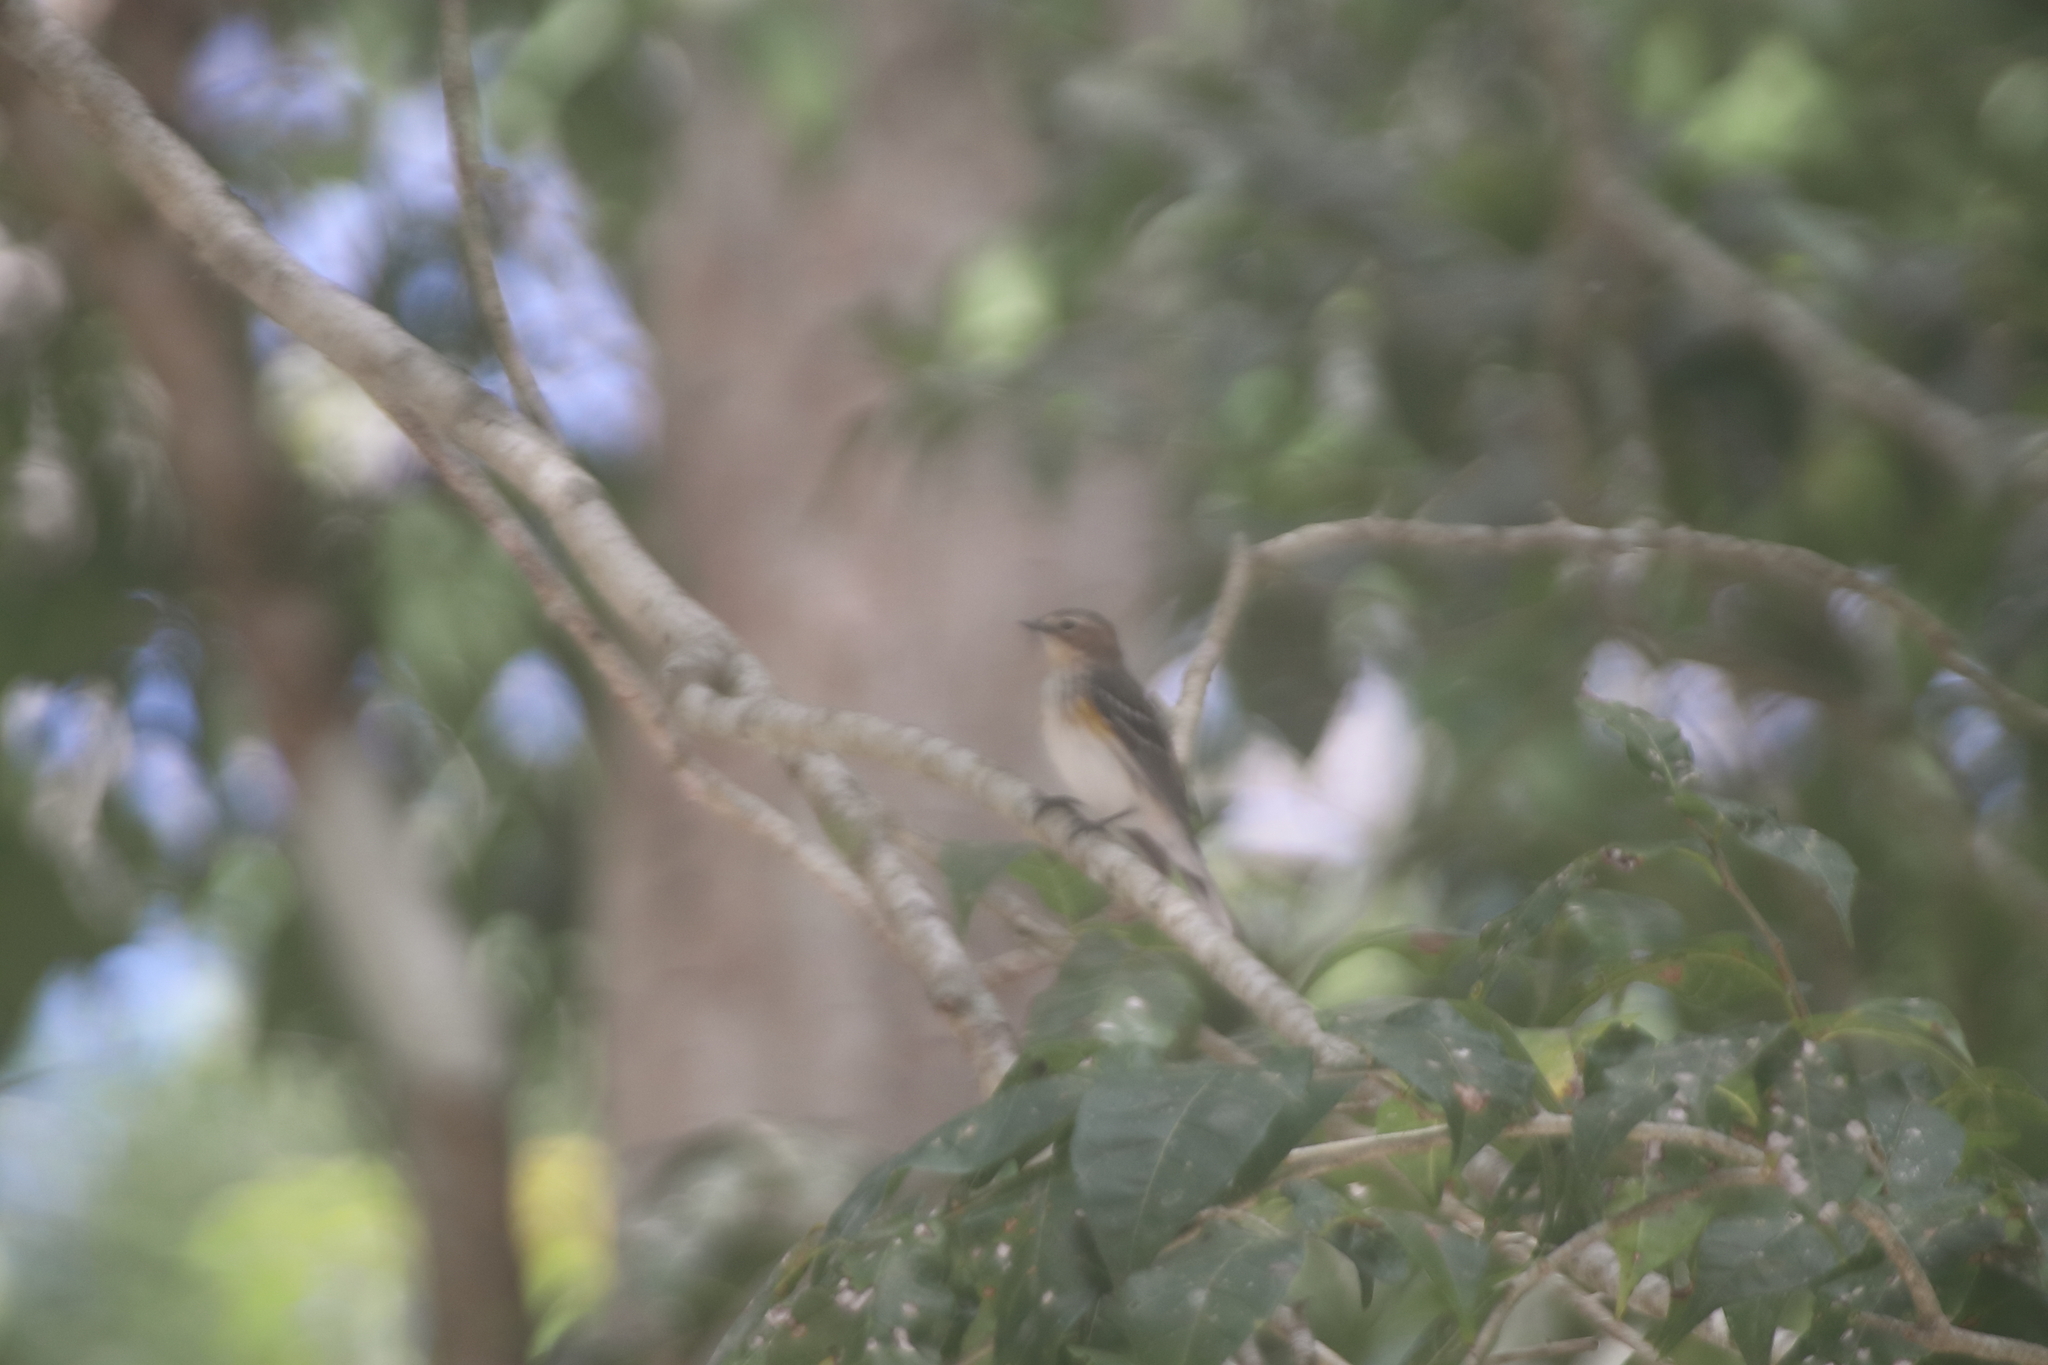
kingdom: Animalia
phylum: Chordata
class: Aves
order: Passeriformes
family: Parulidae
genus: Setophaga
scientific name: Setophaga coronata
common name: Myrtle warbler
